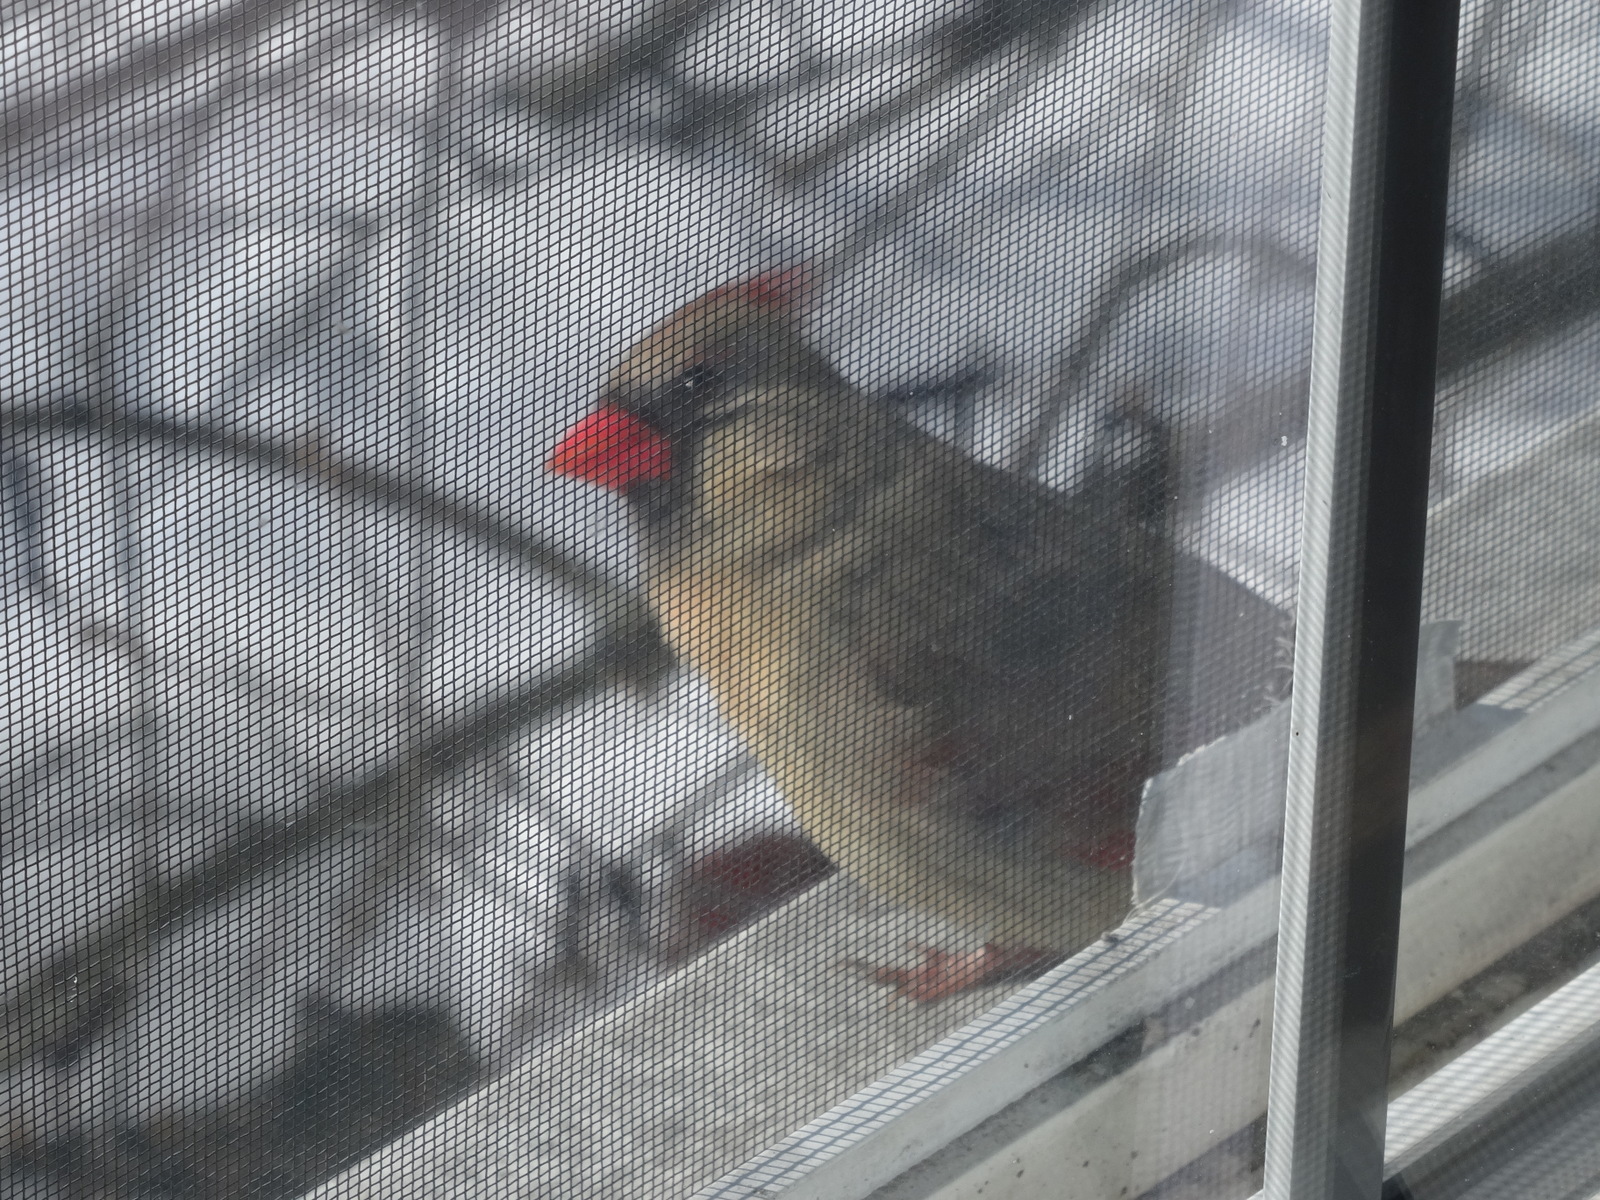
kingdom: Animalia
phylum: Chordata
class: Aves
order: Passeriformes
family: Cardinalidae
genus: Cardinalis
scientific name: Cardinalis cardinalis
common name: Northern cardinal
